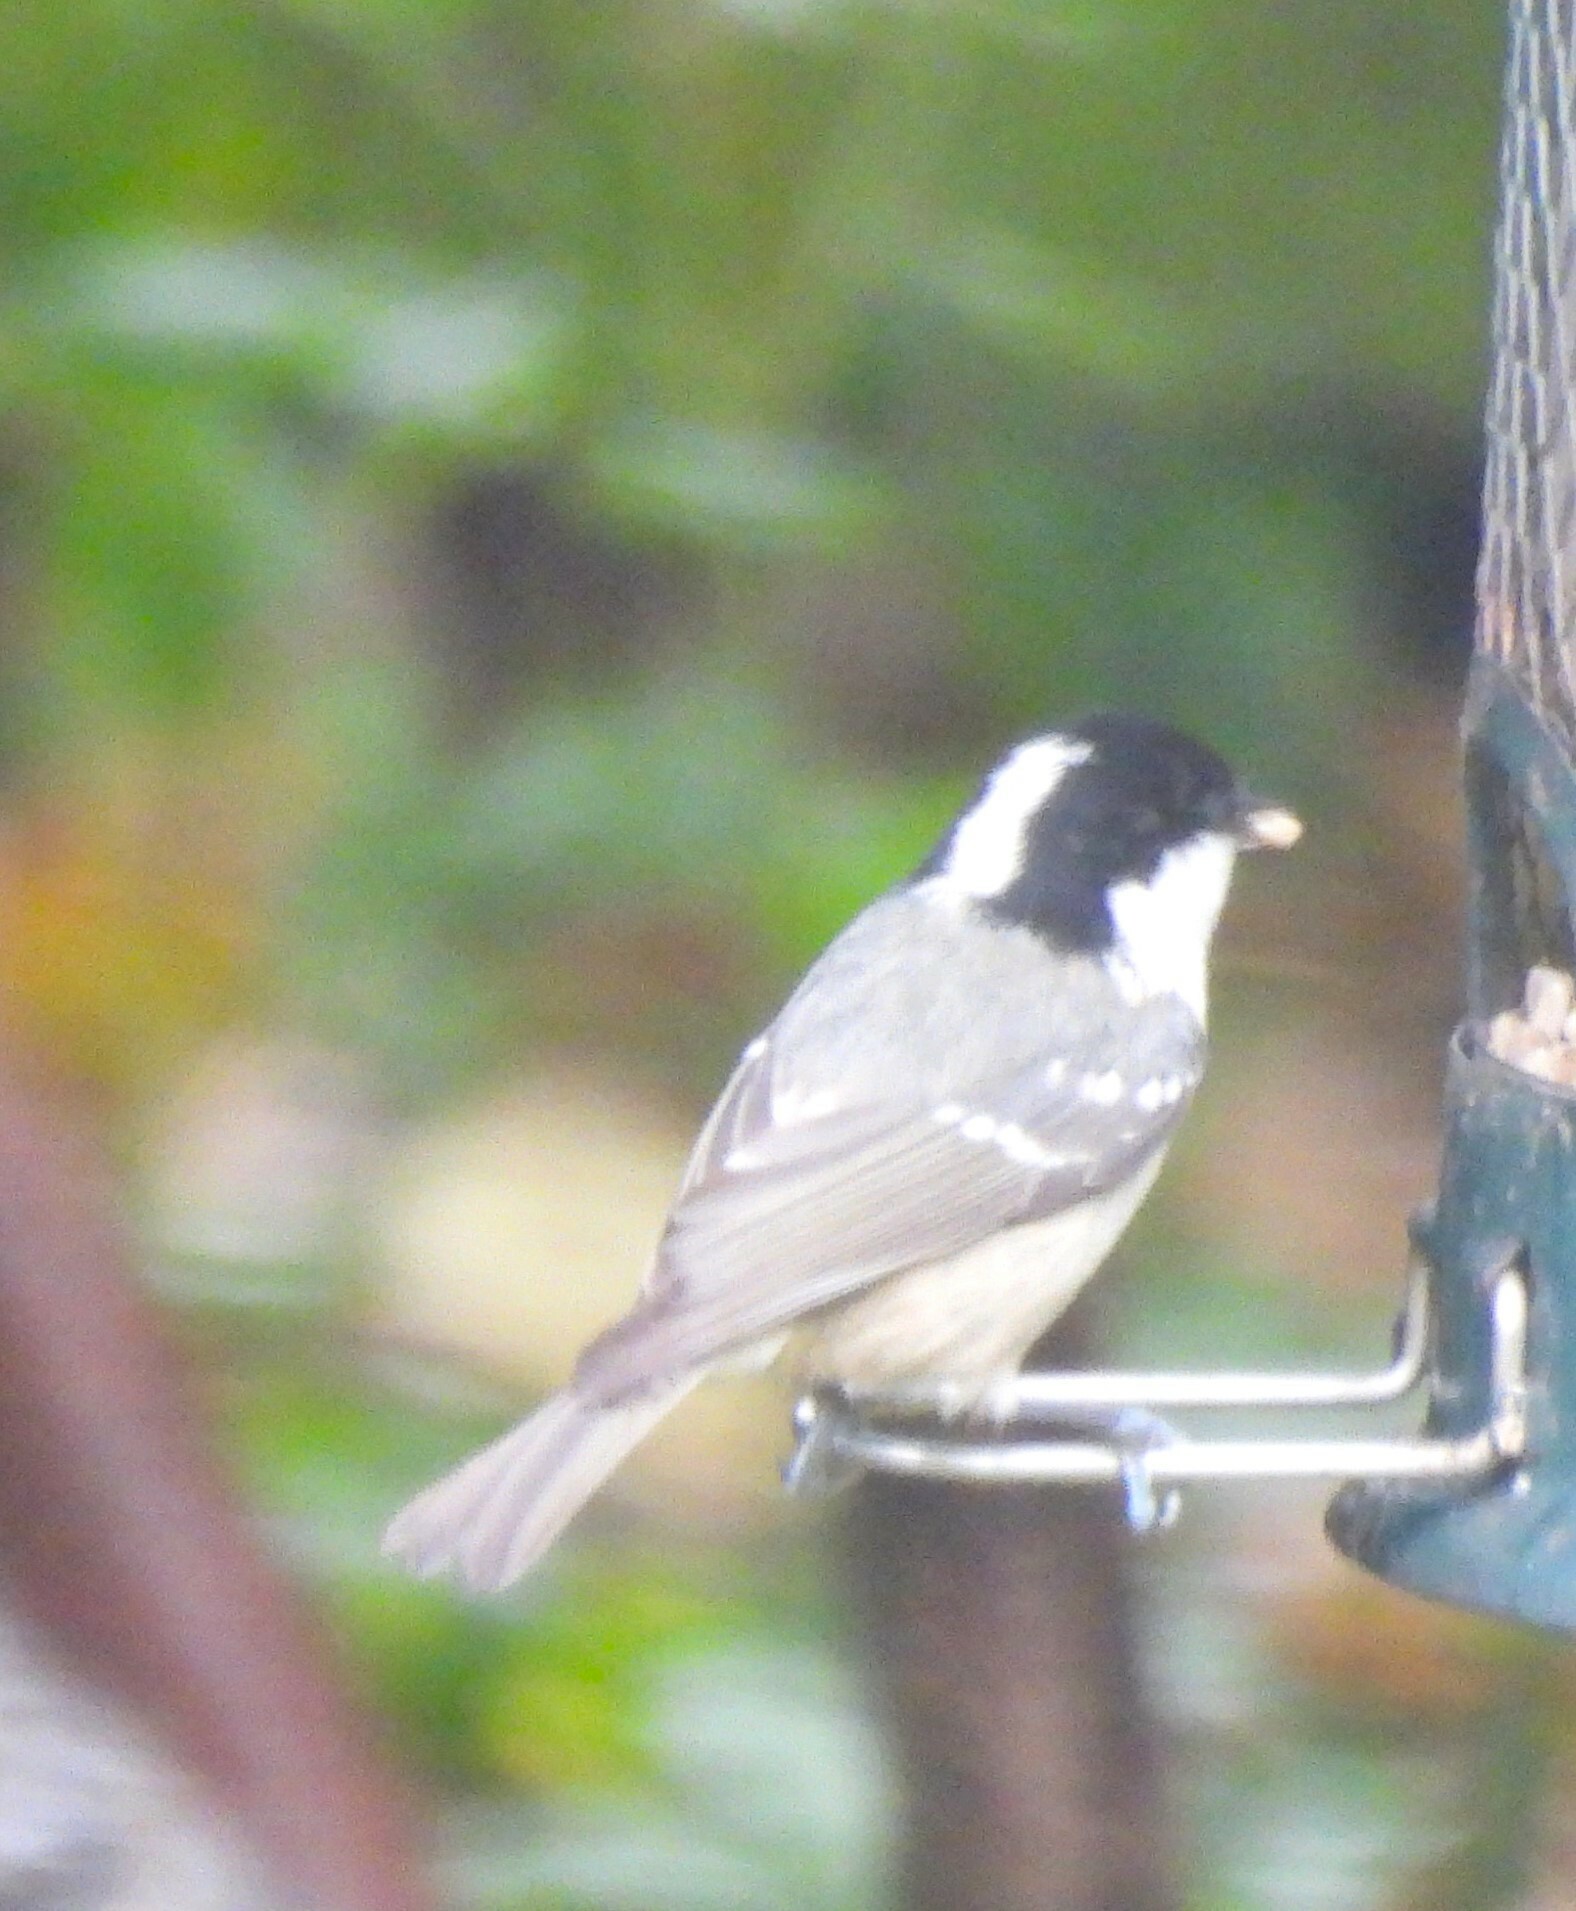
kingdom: Animalia
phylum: Chordata
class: Aves
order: Passeriformes
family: Paridae
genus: Periparus
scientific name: Periparus ater
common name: Coal tit
